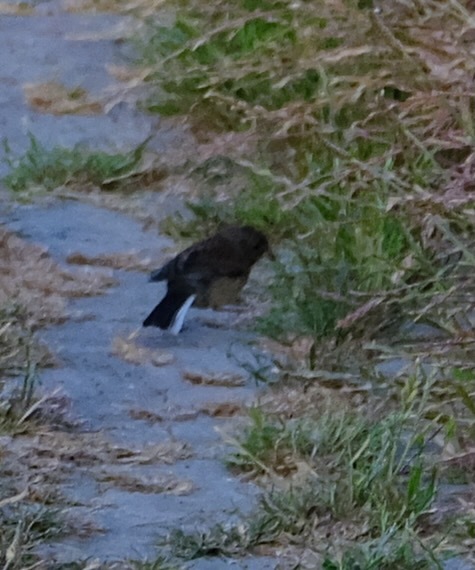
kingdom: Animalia
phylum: Chordata
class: Aves
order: Passeriformes
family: Passerellidae
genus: Junco
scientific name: Junco hyemalis
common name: Dark-eyed junco
